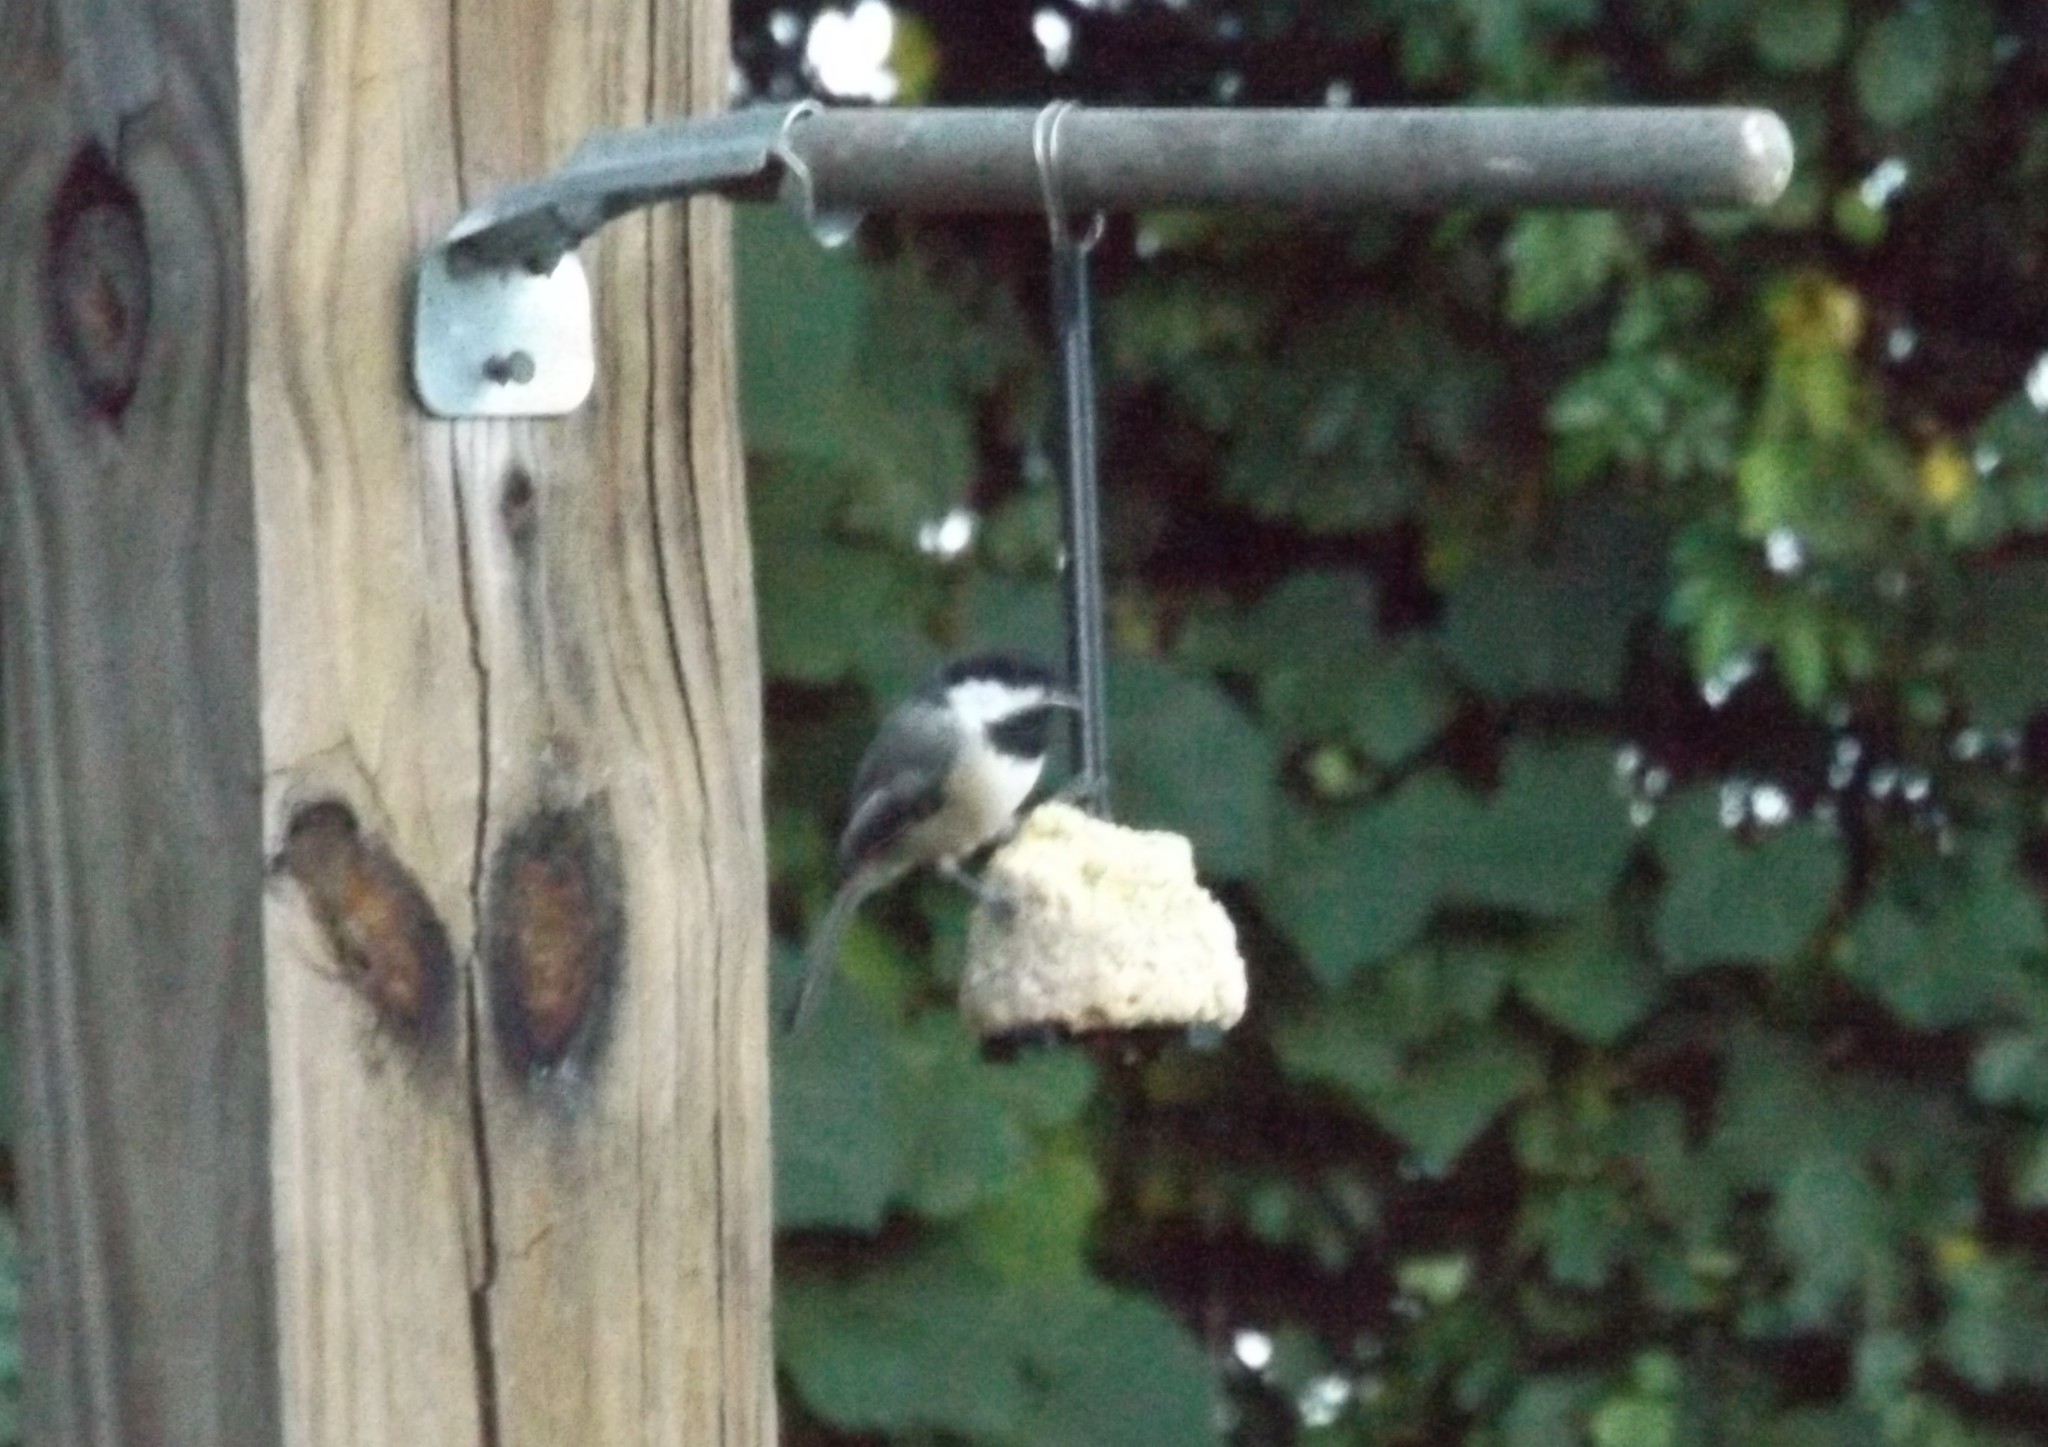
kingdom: Animalia
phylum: Chordata
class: Aves
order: Passeriformes
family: Paridae
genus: Poecile
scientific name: Poecile atricapillus
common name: Black-capped chickadee
